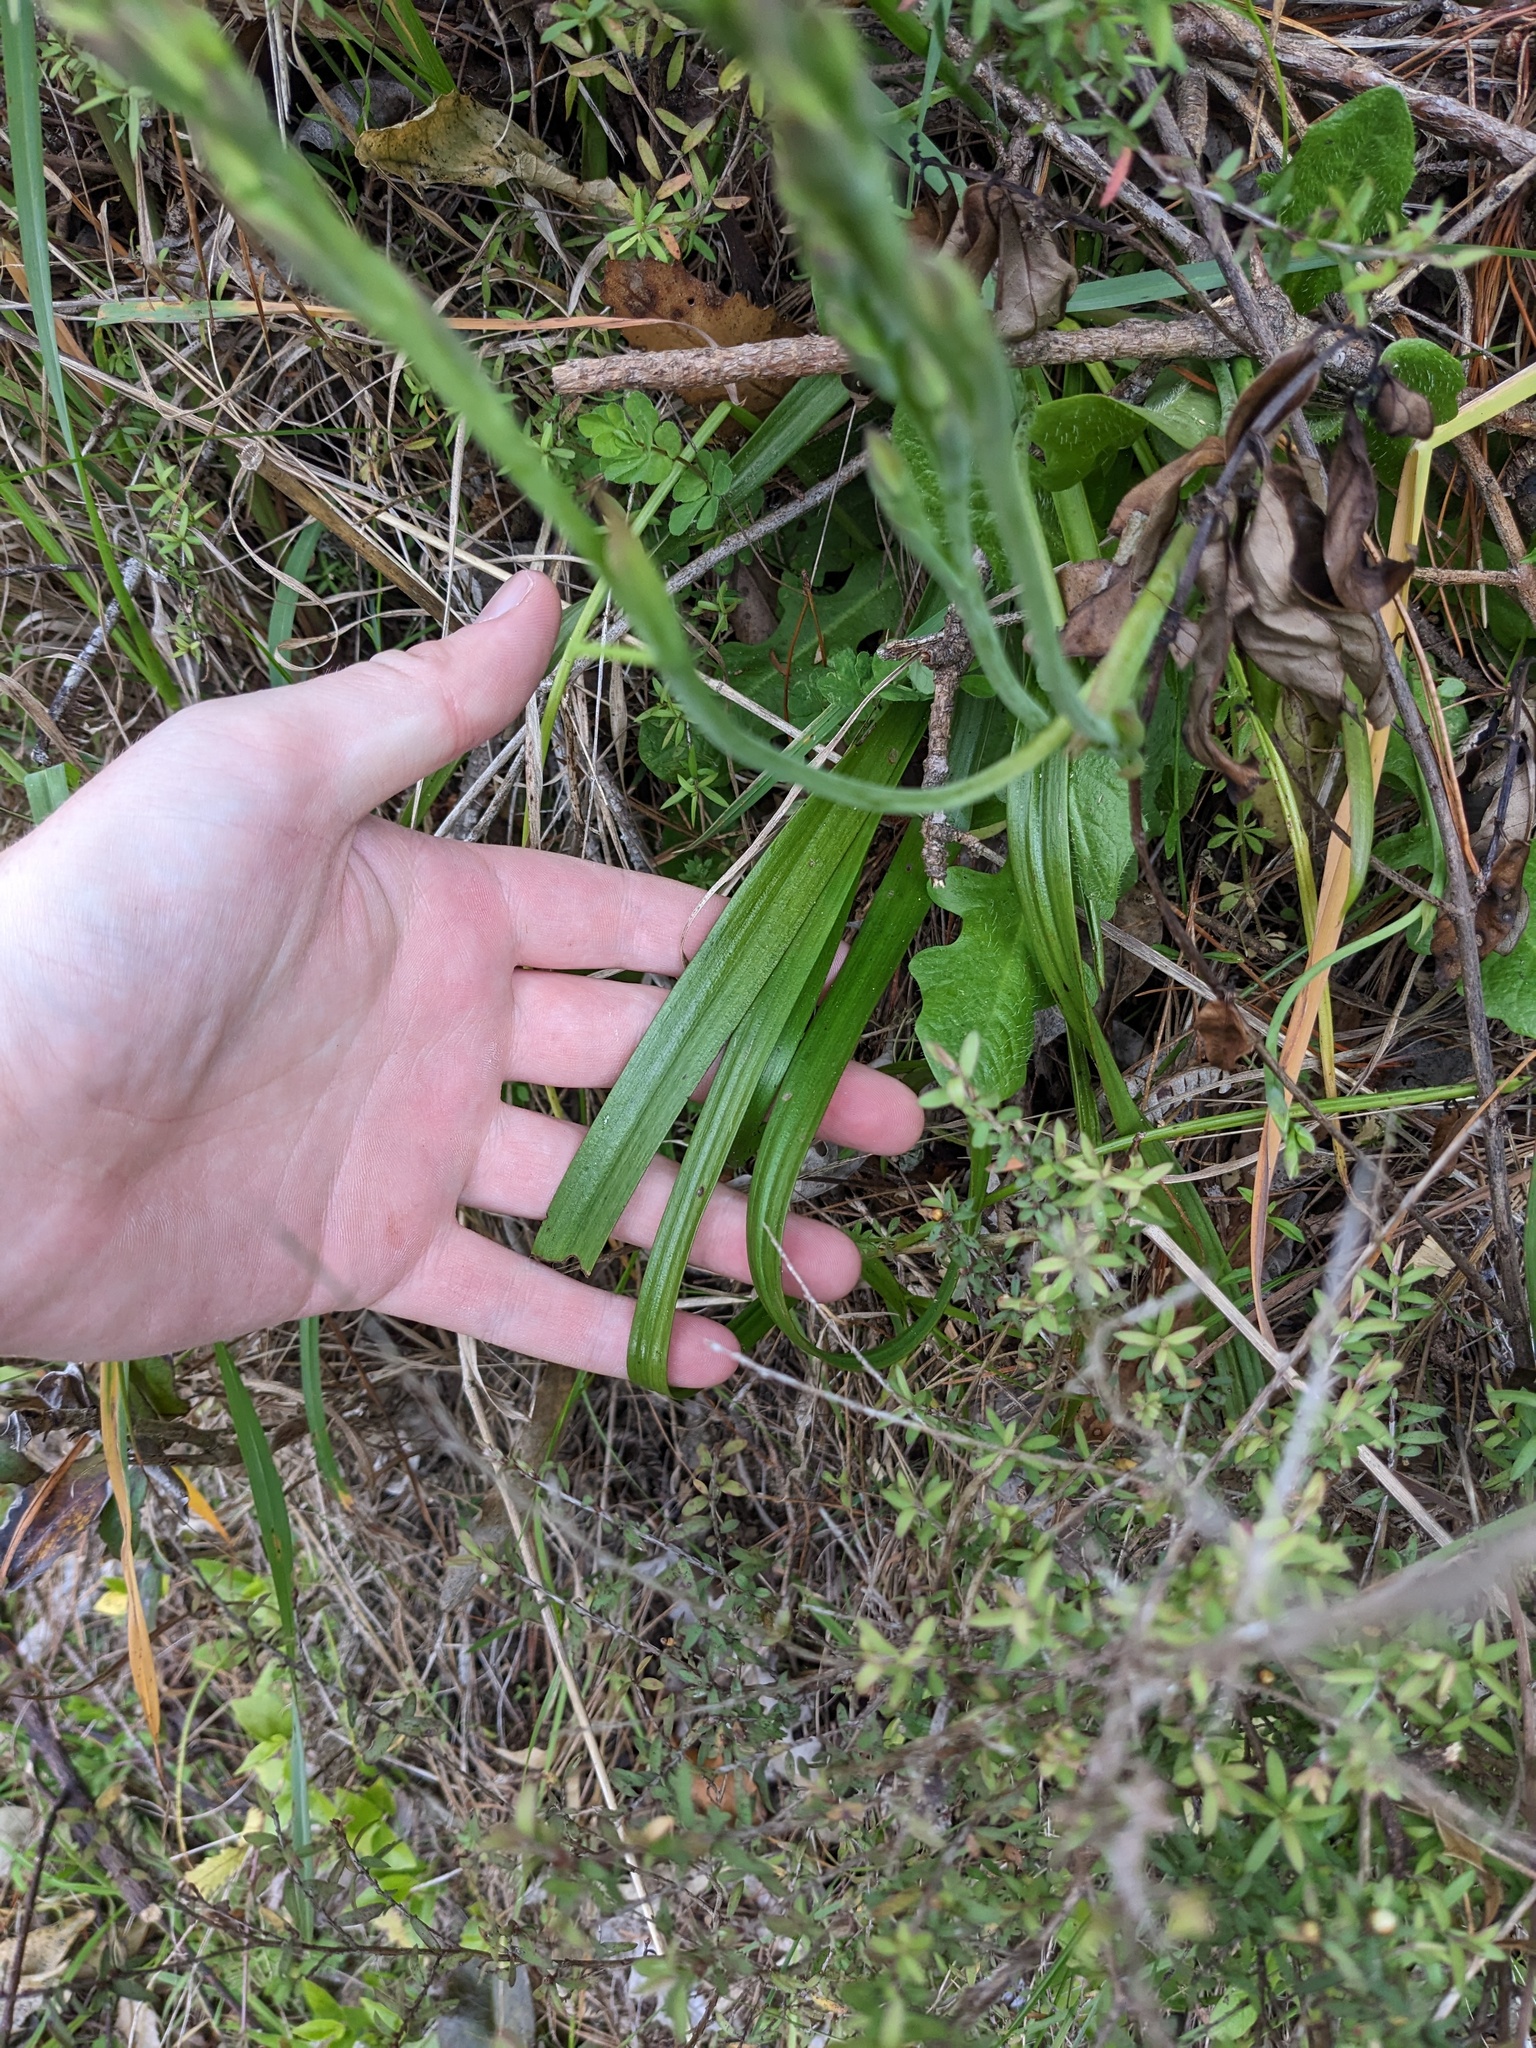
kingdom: Plantae
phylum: Tracheophyta
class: Liliopsida
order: Asparagales
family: Orchidaceae
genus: Thelymitra
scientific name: Thelymitra longifolia
